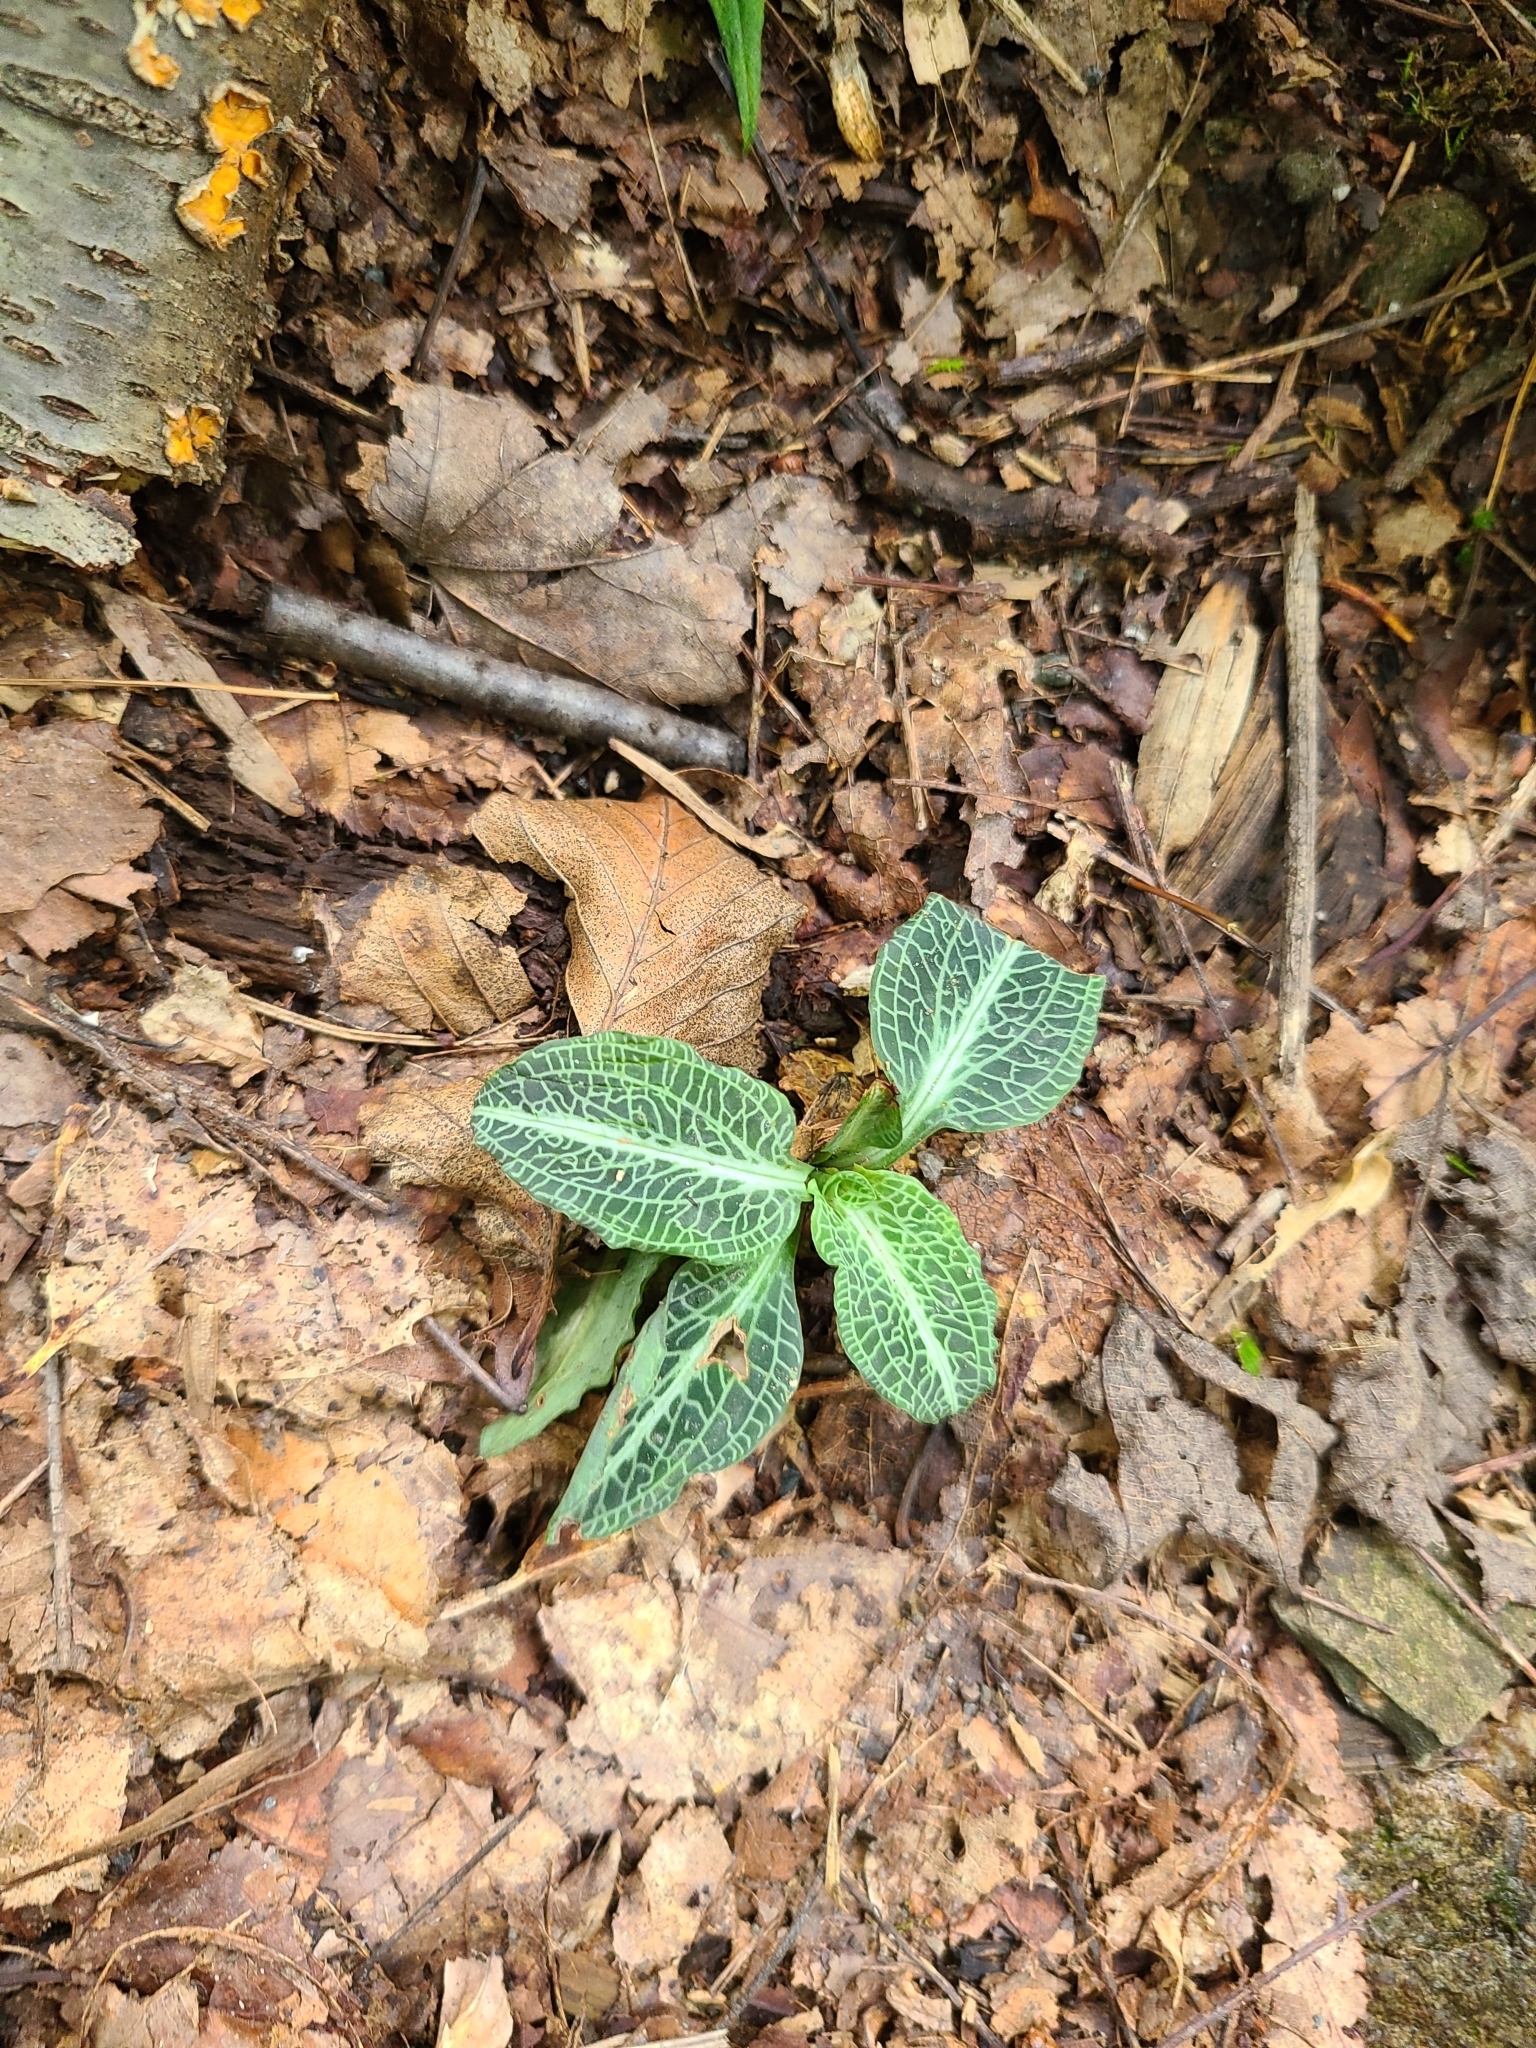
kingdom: Plantae
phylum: Tracheophyta
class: Liliopsida
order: Asparagales
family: Orchidaceae
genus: Goodyera
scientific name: Goodyera pubescens
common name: Downy rattlesnake-plantain
